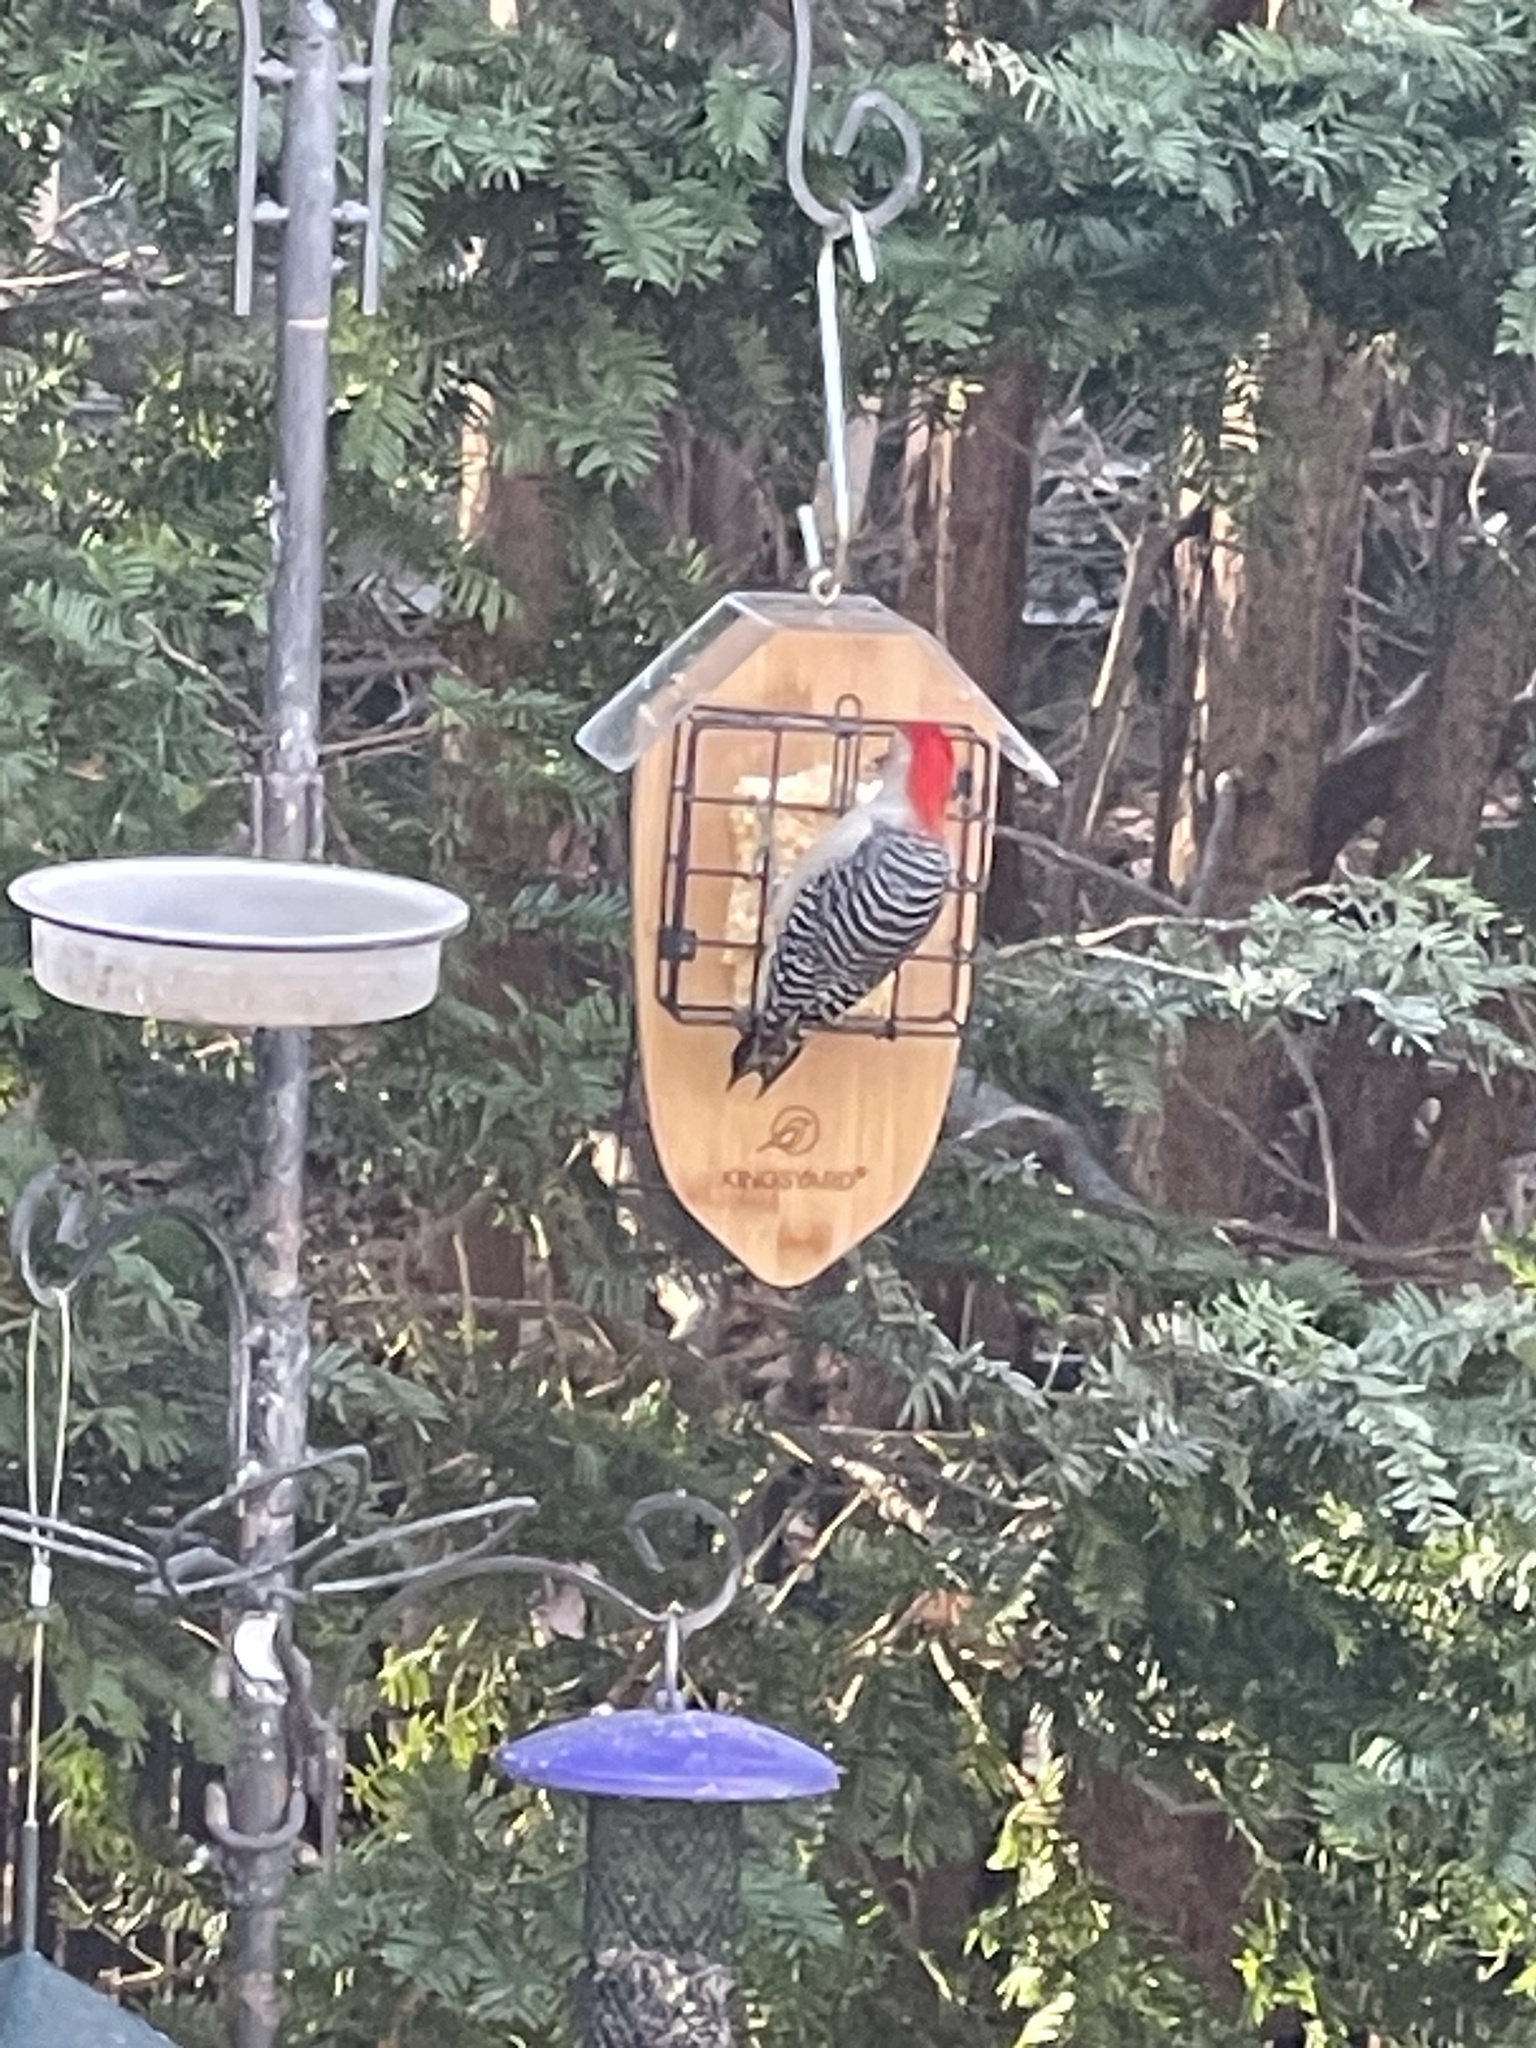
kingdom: Animalia
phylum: Chordata
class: Aves
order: Piciformes
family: Picidae
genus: Melanerpes
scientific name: Melanerpes carolinus
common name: Red-bellied woodpecker
